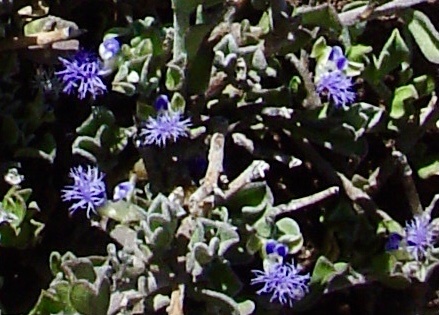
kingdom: Plantae
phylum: Tracheophyta
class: Magnoliopsida
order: Fabales
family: Polygalaceae
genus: Polygala
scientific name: Polygala asbestina
